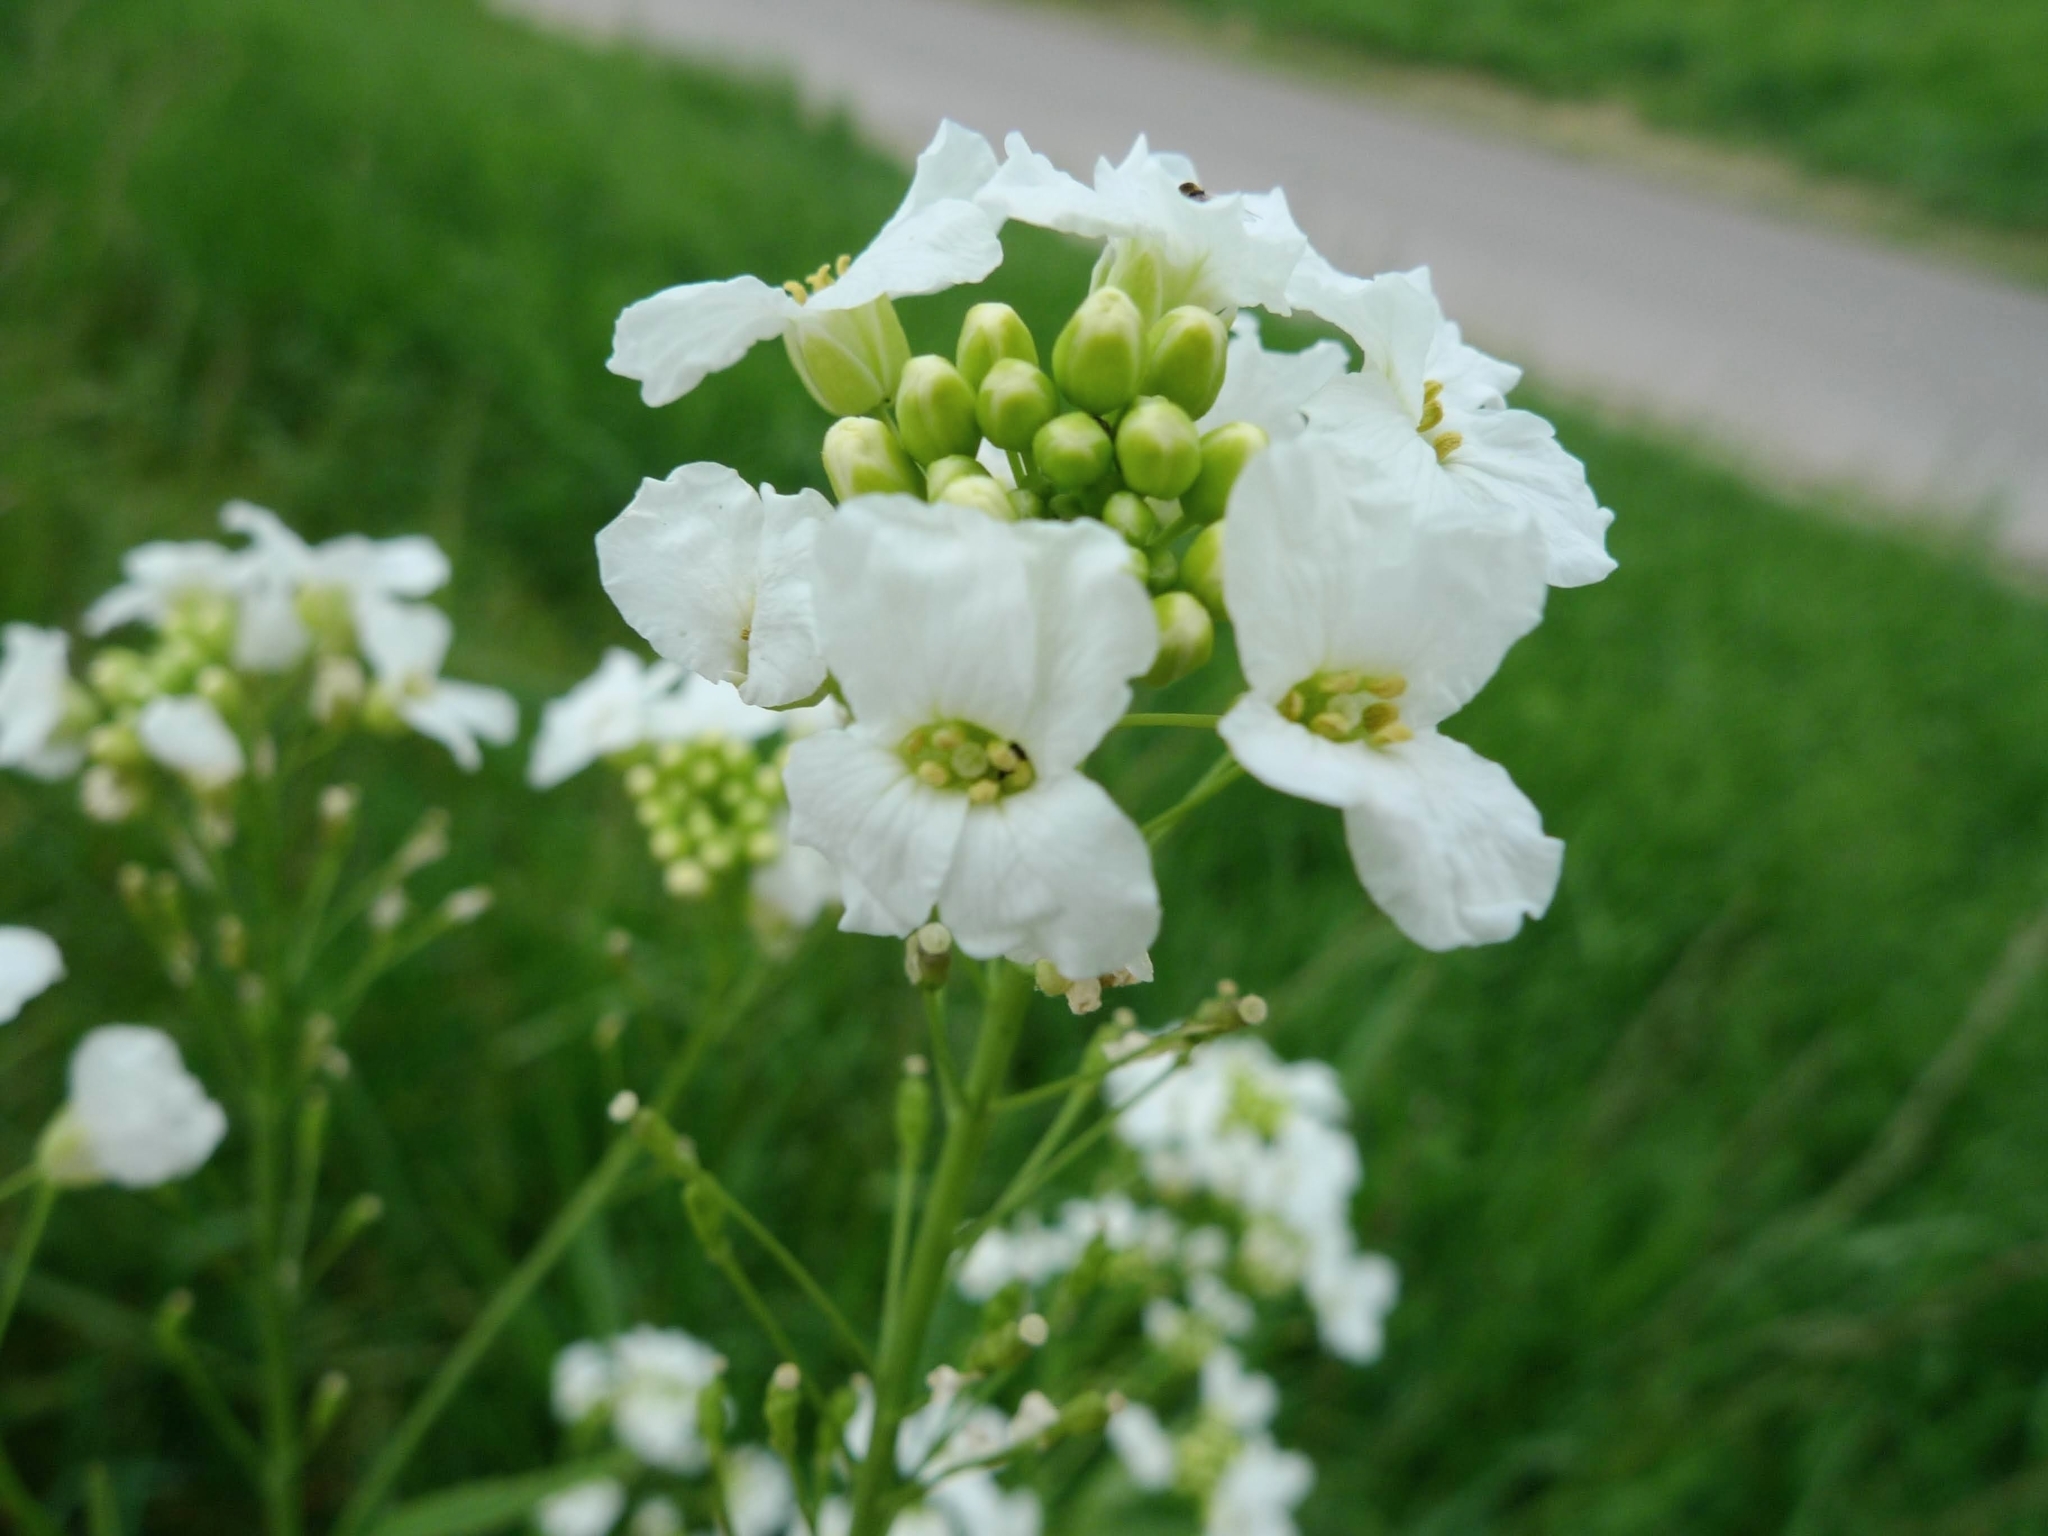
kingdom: Plantae
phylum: Tracheophyta
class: Magnoliopsida
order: Brassicales
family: Brassicaceae
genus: Armoracia
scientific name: Armoracia rusticana
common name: Horseradish
